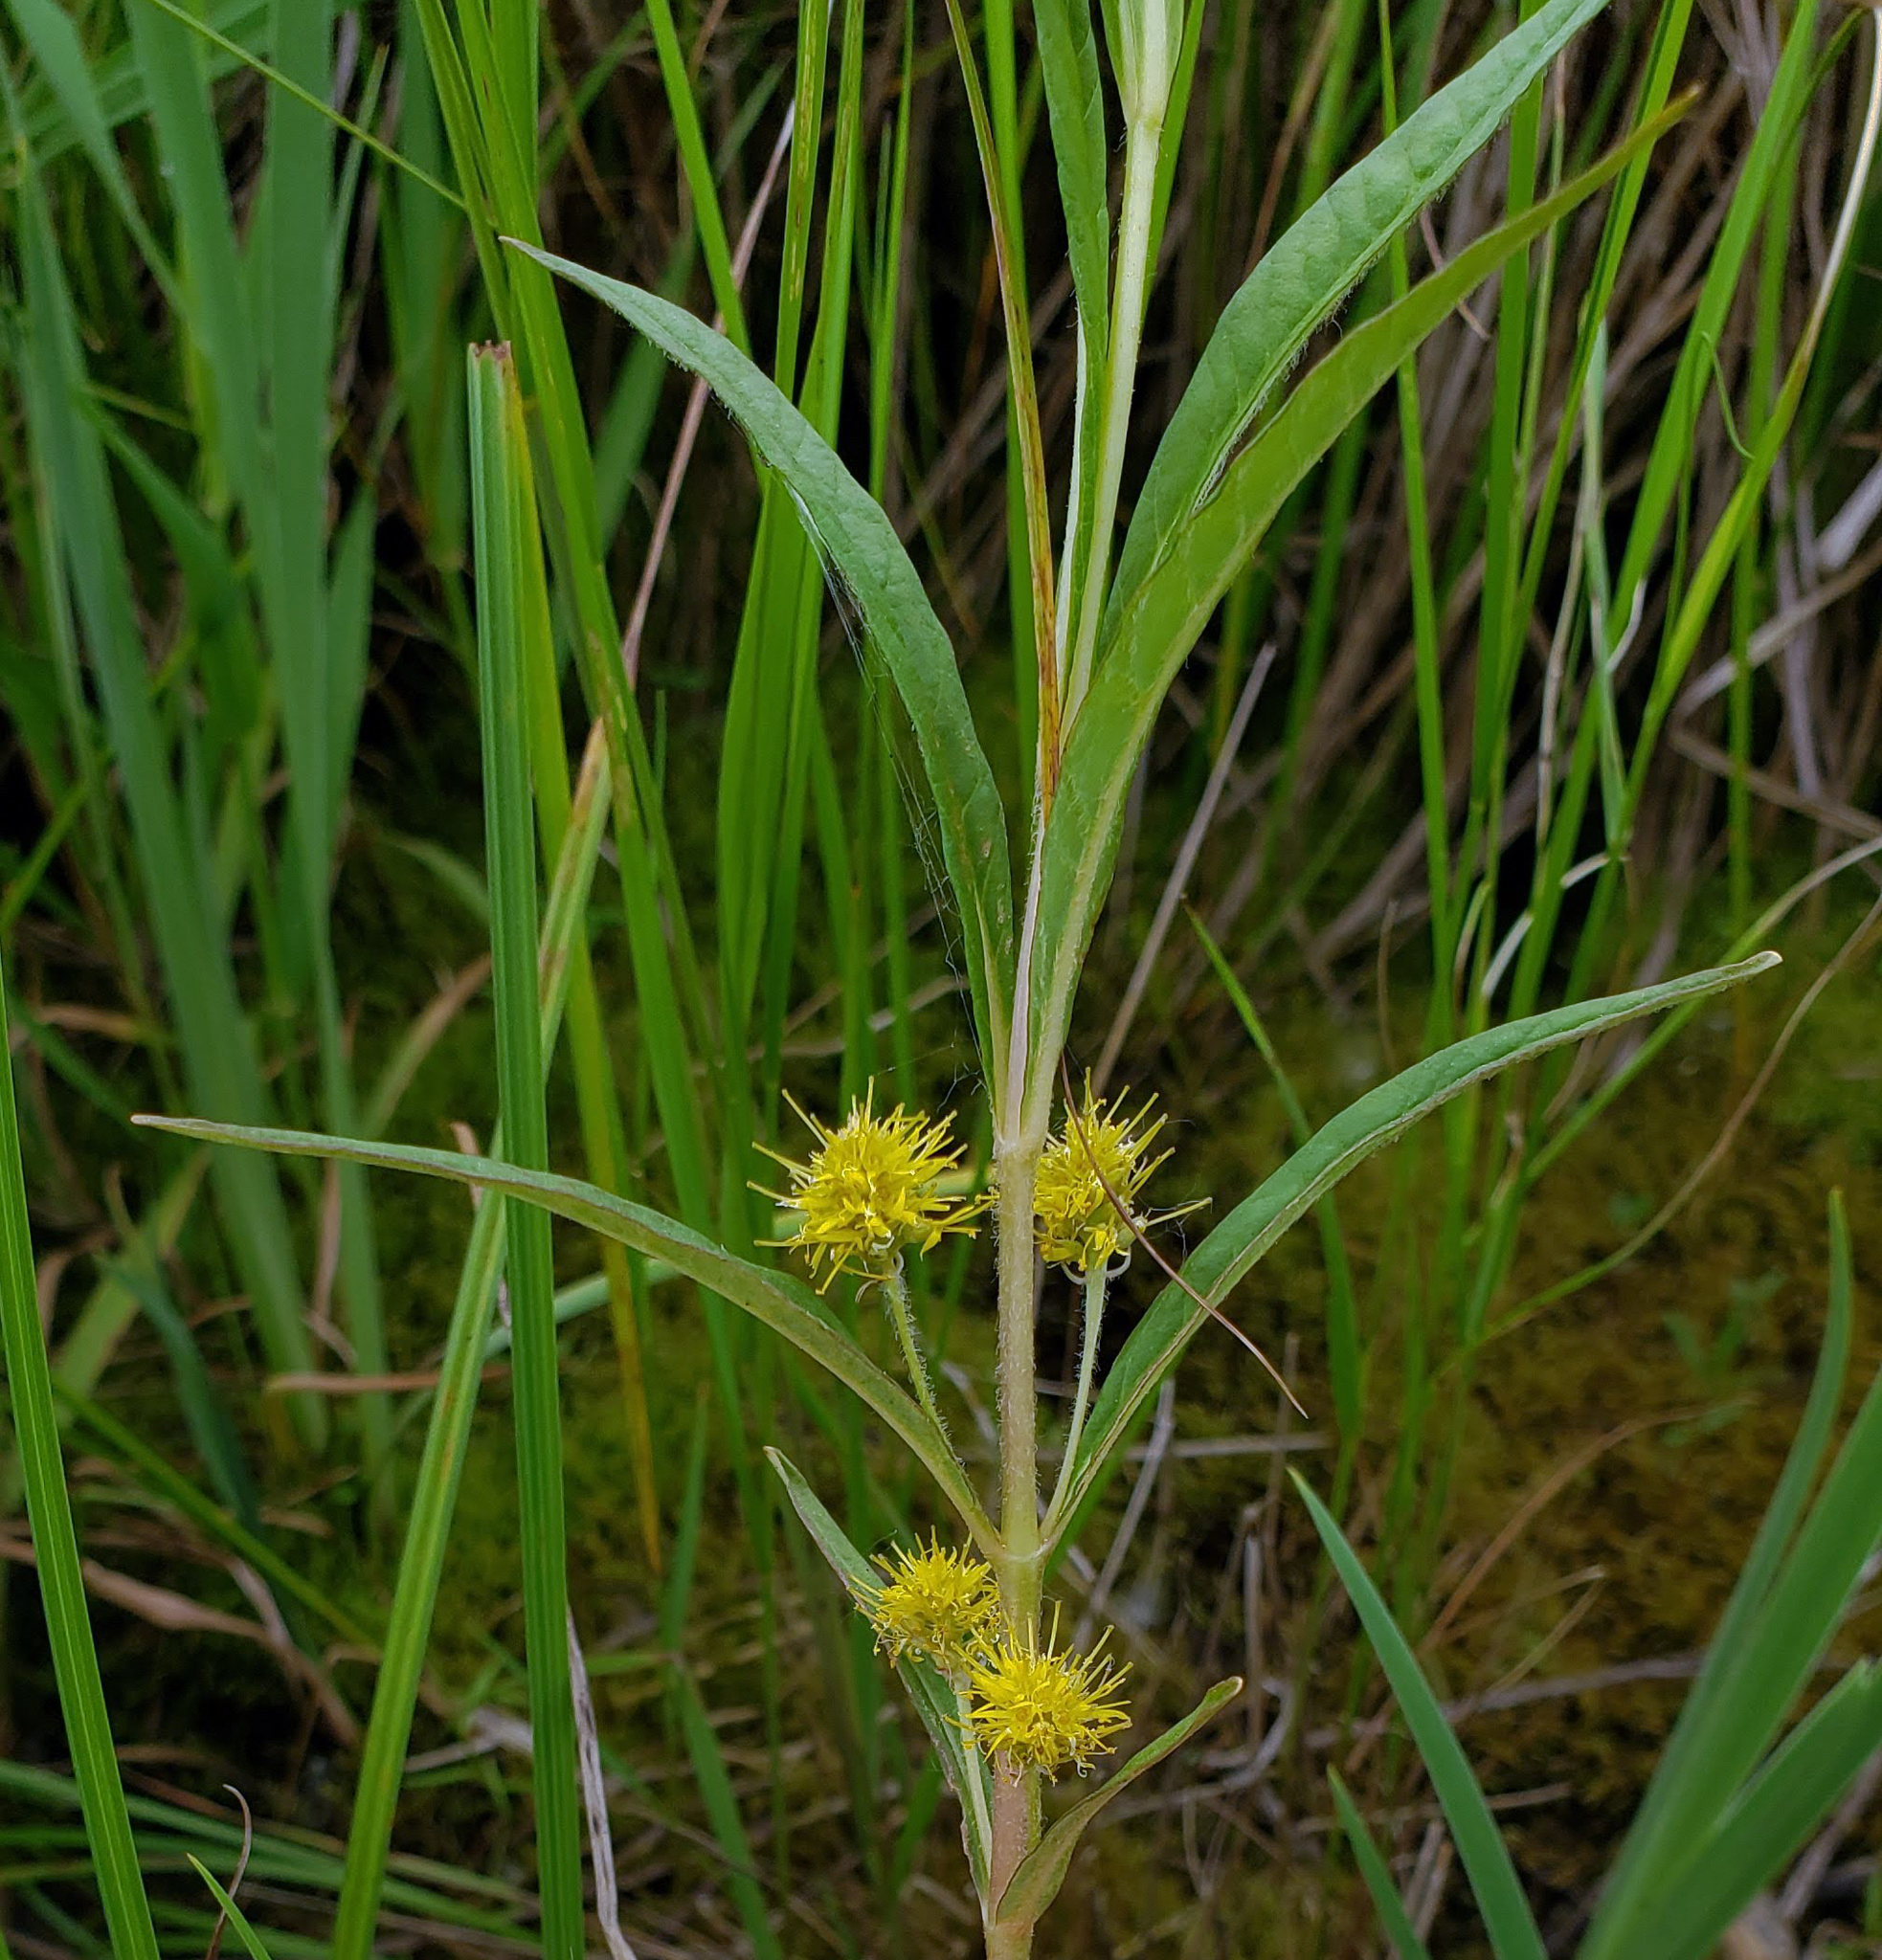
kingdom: Plantae
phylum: Tracheophyta
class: Magnoliopsida
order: Ericales
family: Primulaceae
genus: Lysimachia
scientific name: Lysimachia thyrsiflora
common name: Tufted loosestrife
